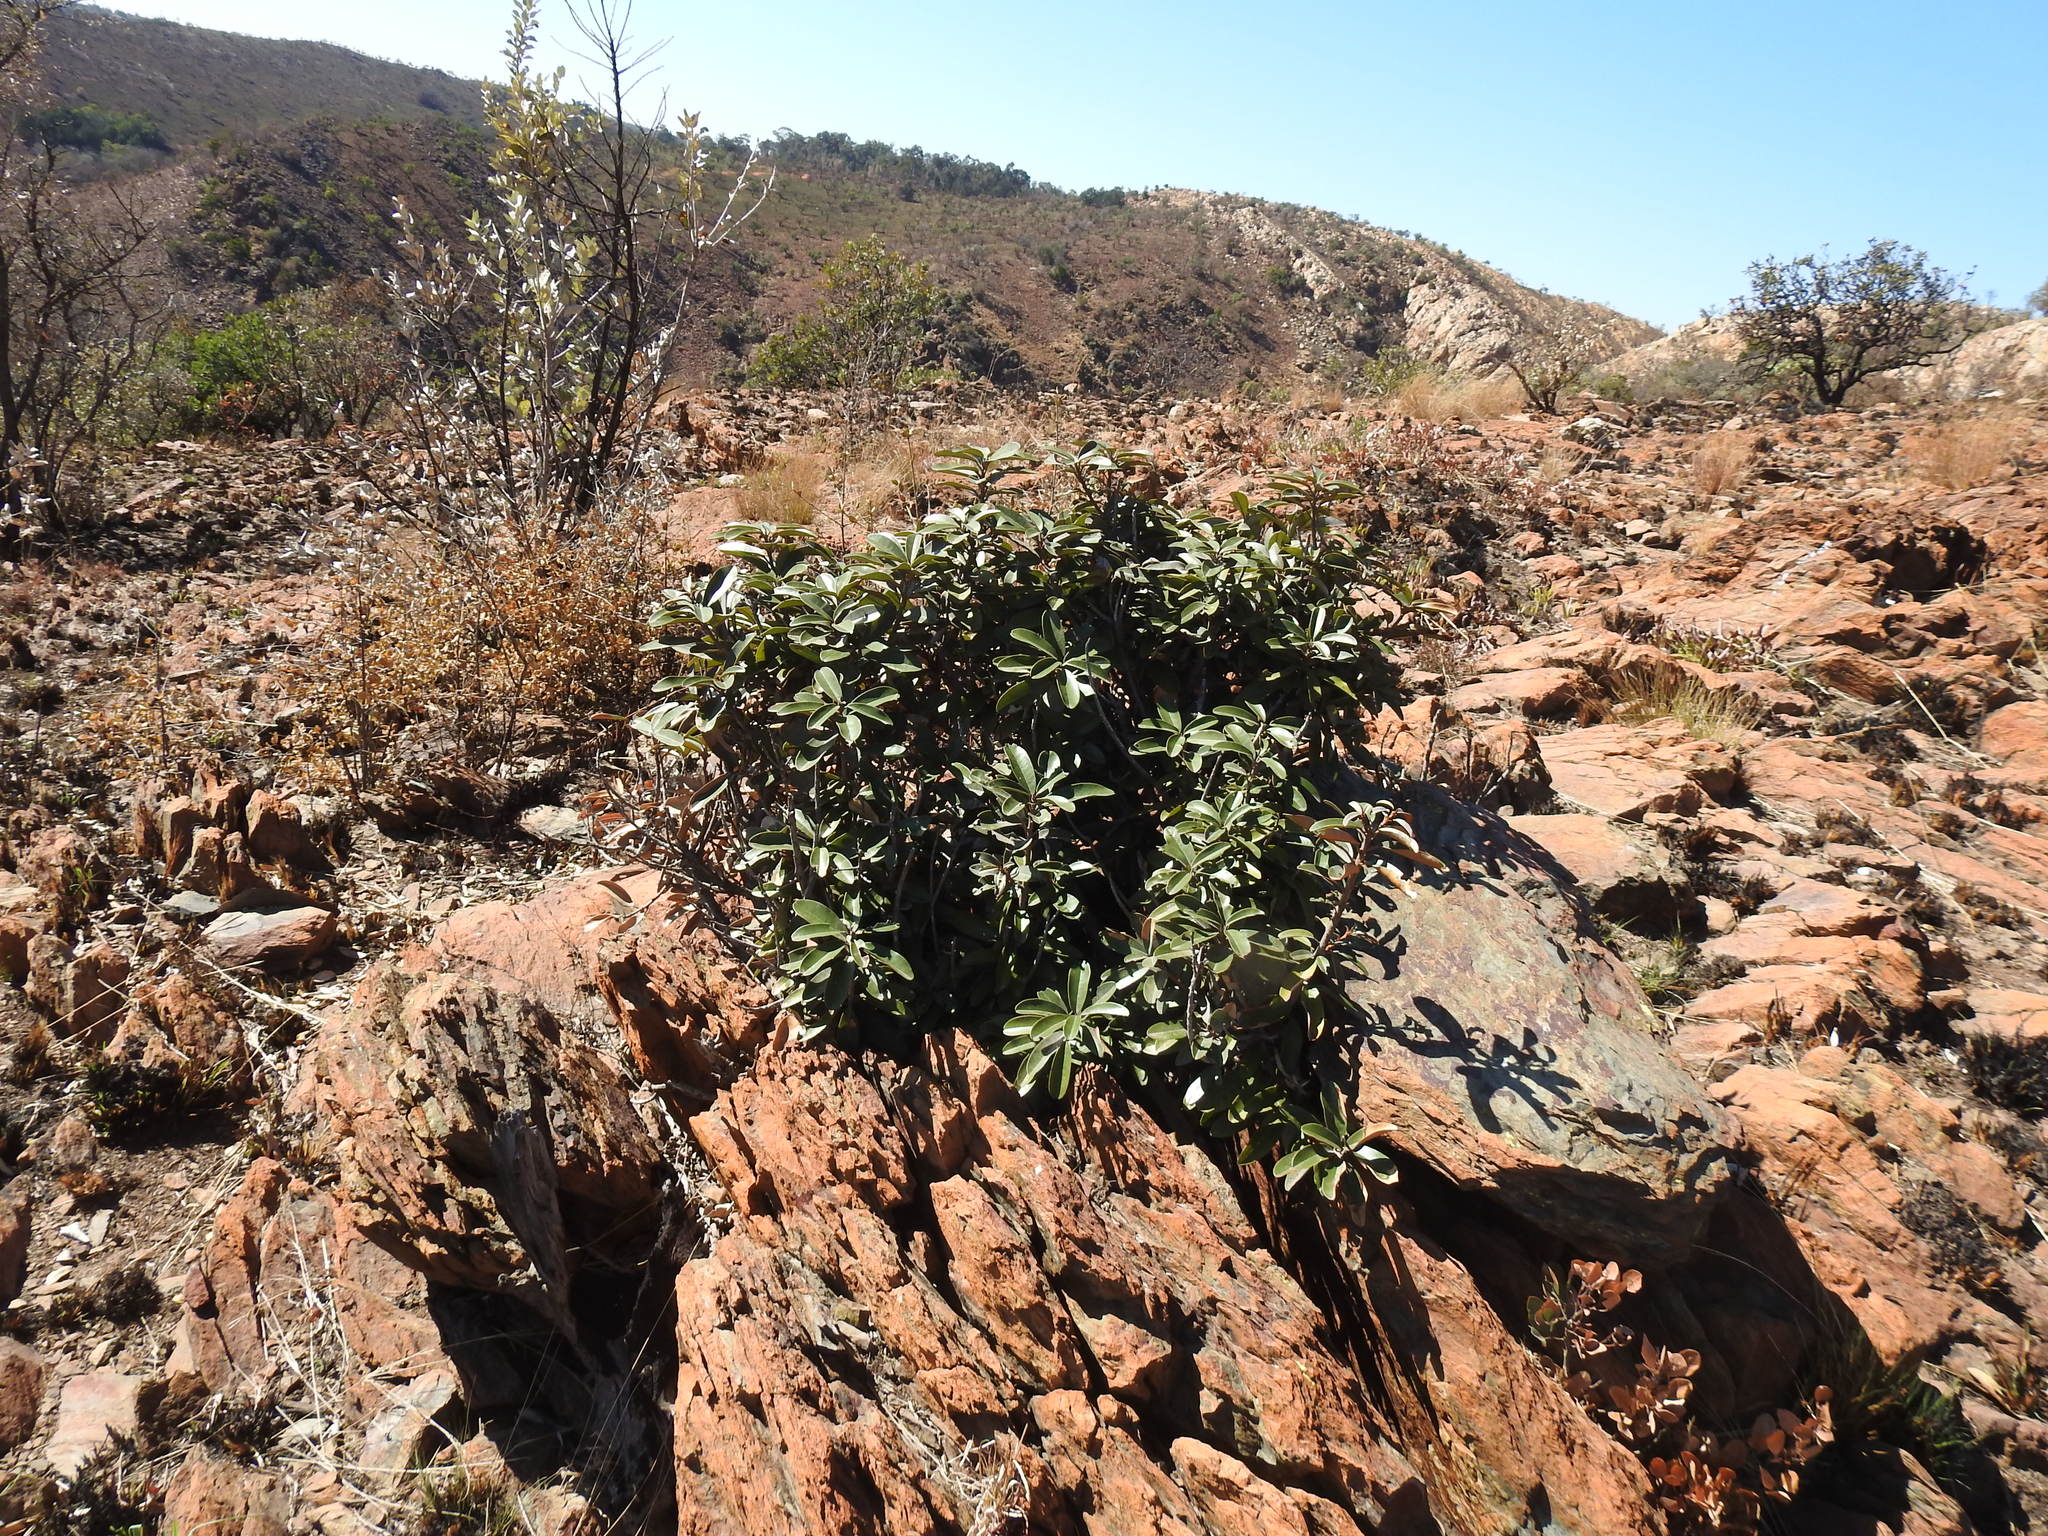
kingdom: Plantae
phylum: Tracheophyta
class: Magnoliopsida
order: Ericales
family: Sapotaceae
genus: Englerophytum
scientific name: Englerophytum magalismontanum
